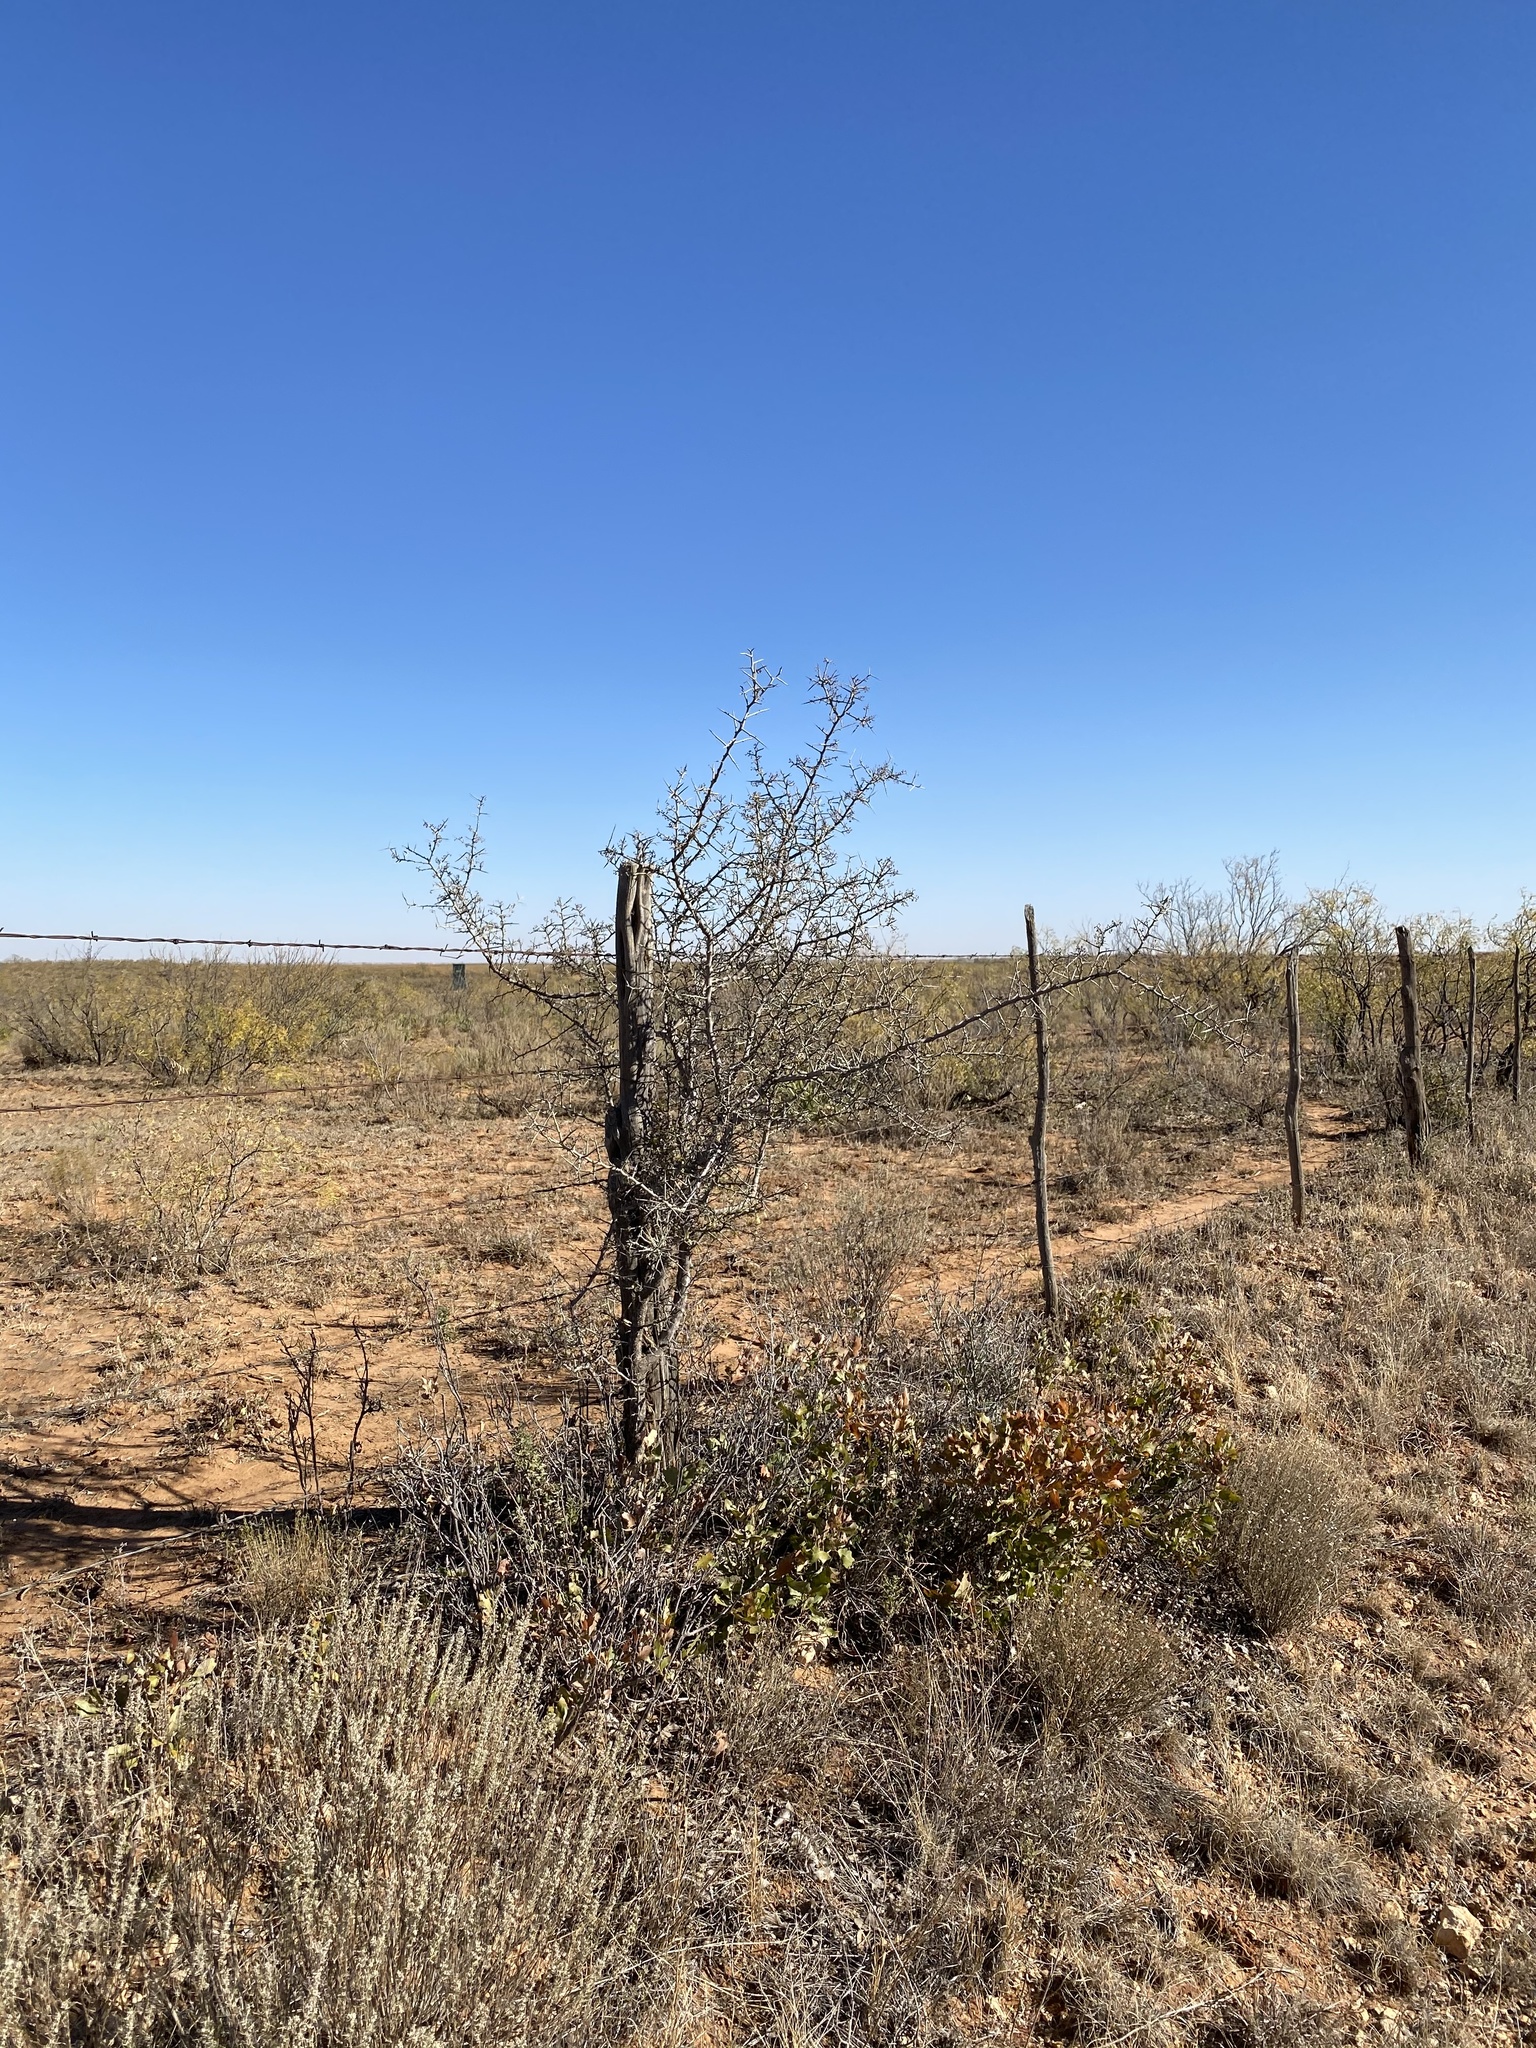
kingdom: Plantae
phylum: Tracheophyta
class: Magnoliopsida
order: Rosales
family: Rhamnaceae
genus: Sarcomphalus
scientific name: Sarcomphalus obtusifolius
